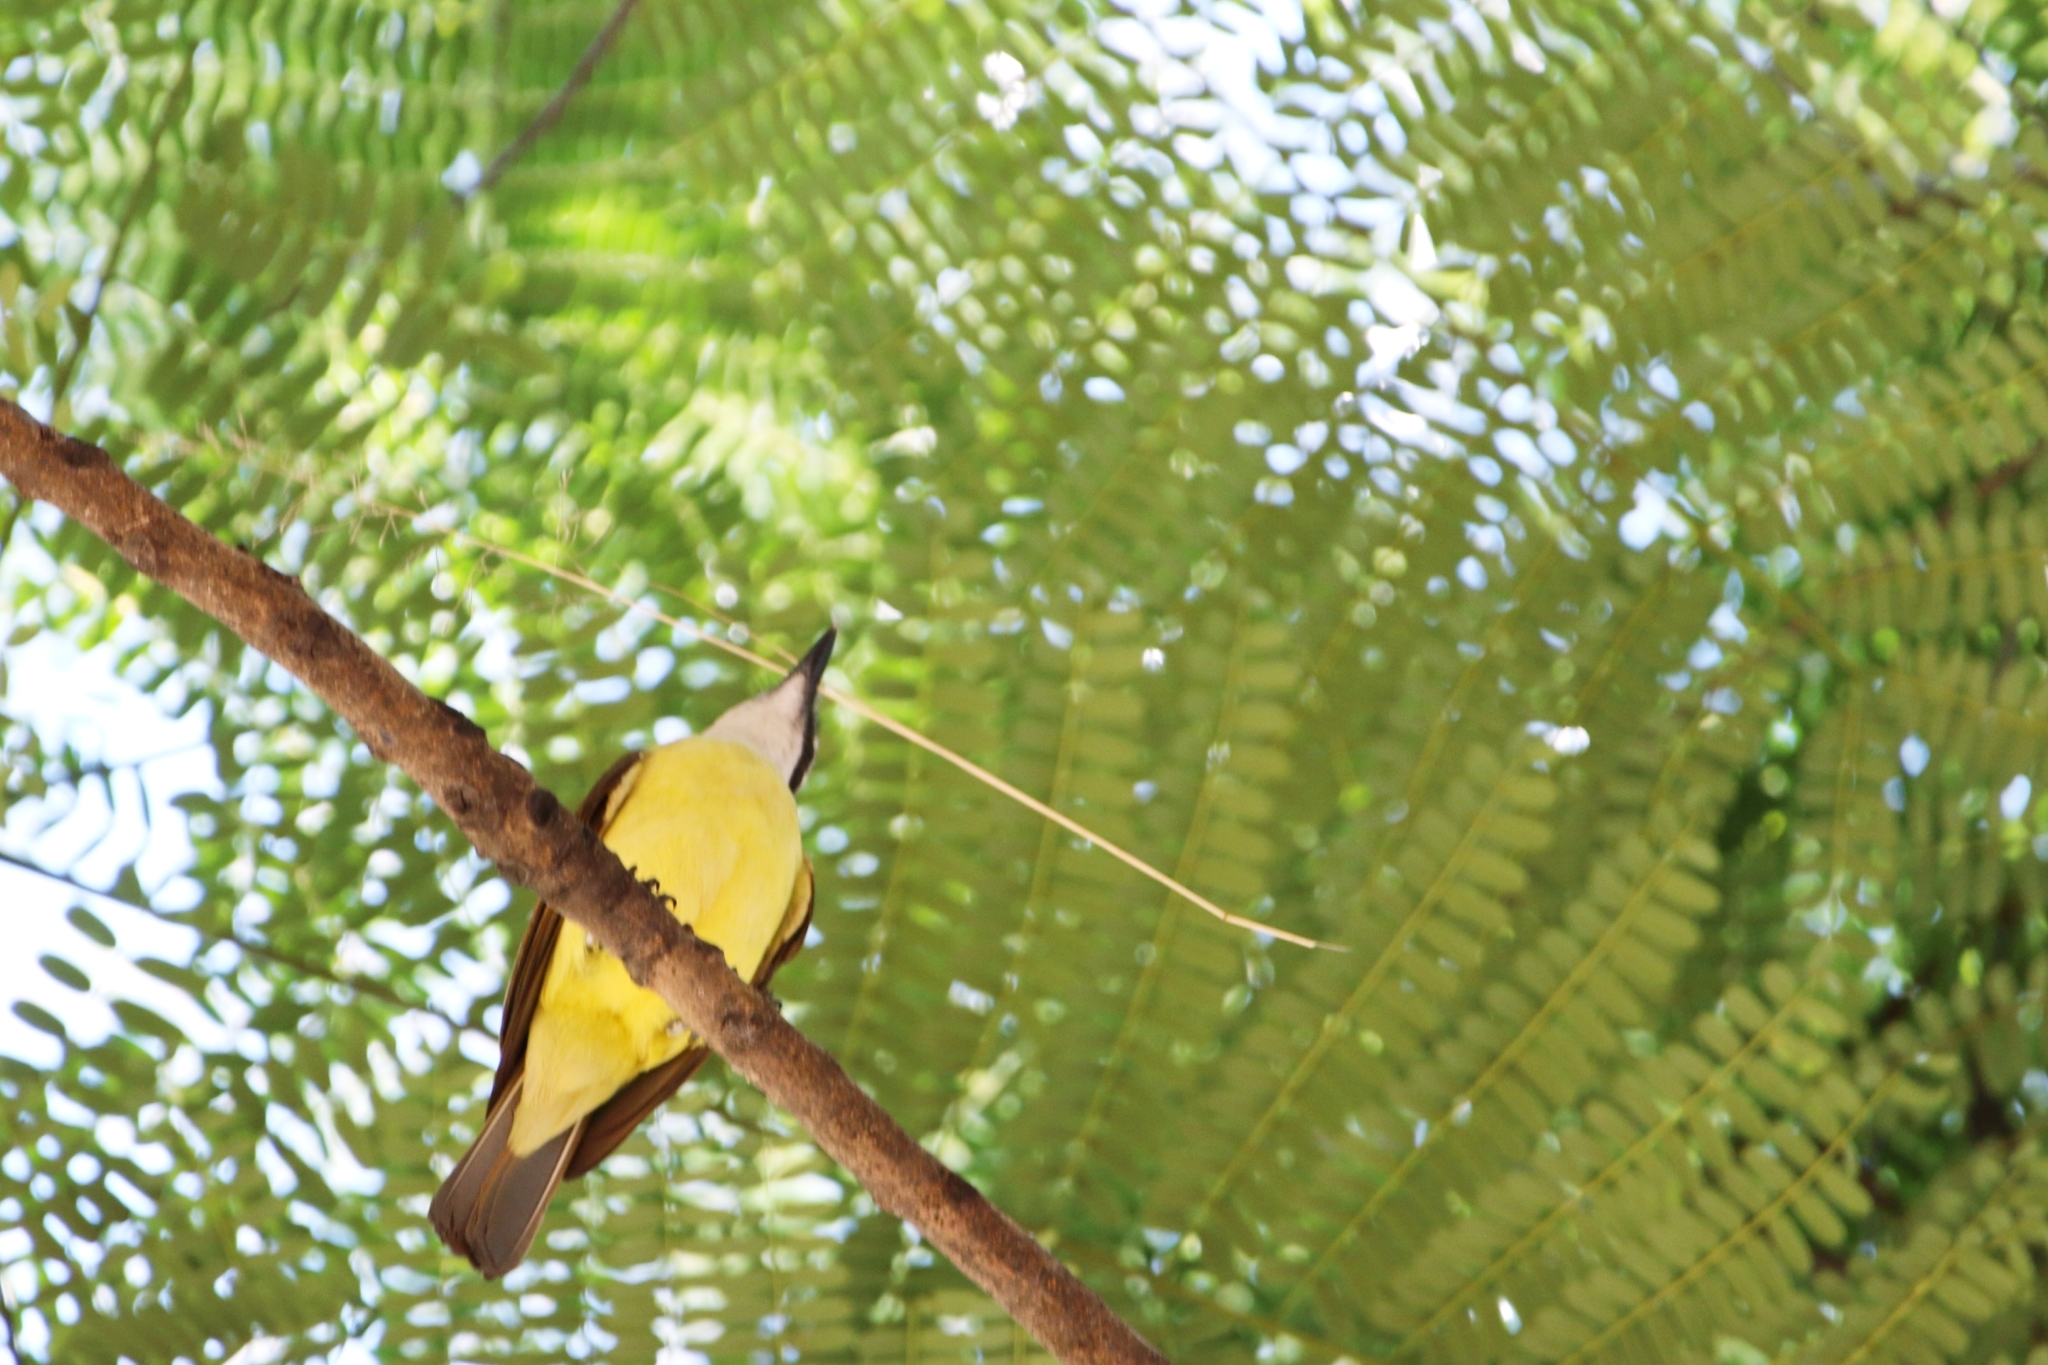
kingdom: Animalia
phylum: Chordata
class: Aves
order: Passeriformes
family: Tyrannidae
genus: Pitangus
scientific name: Pitangus sulphuratus
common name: Great kiskadee
